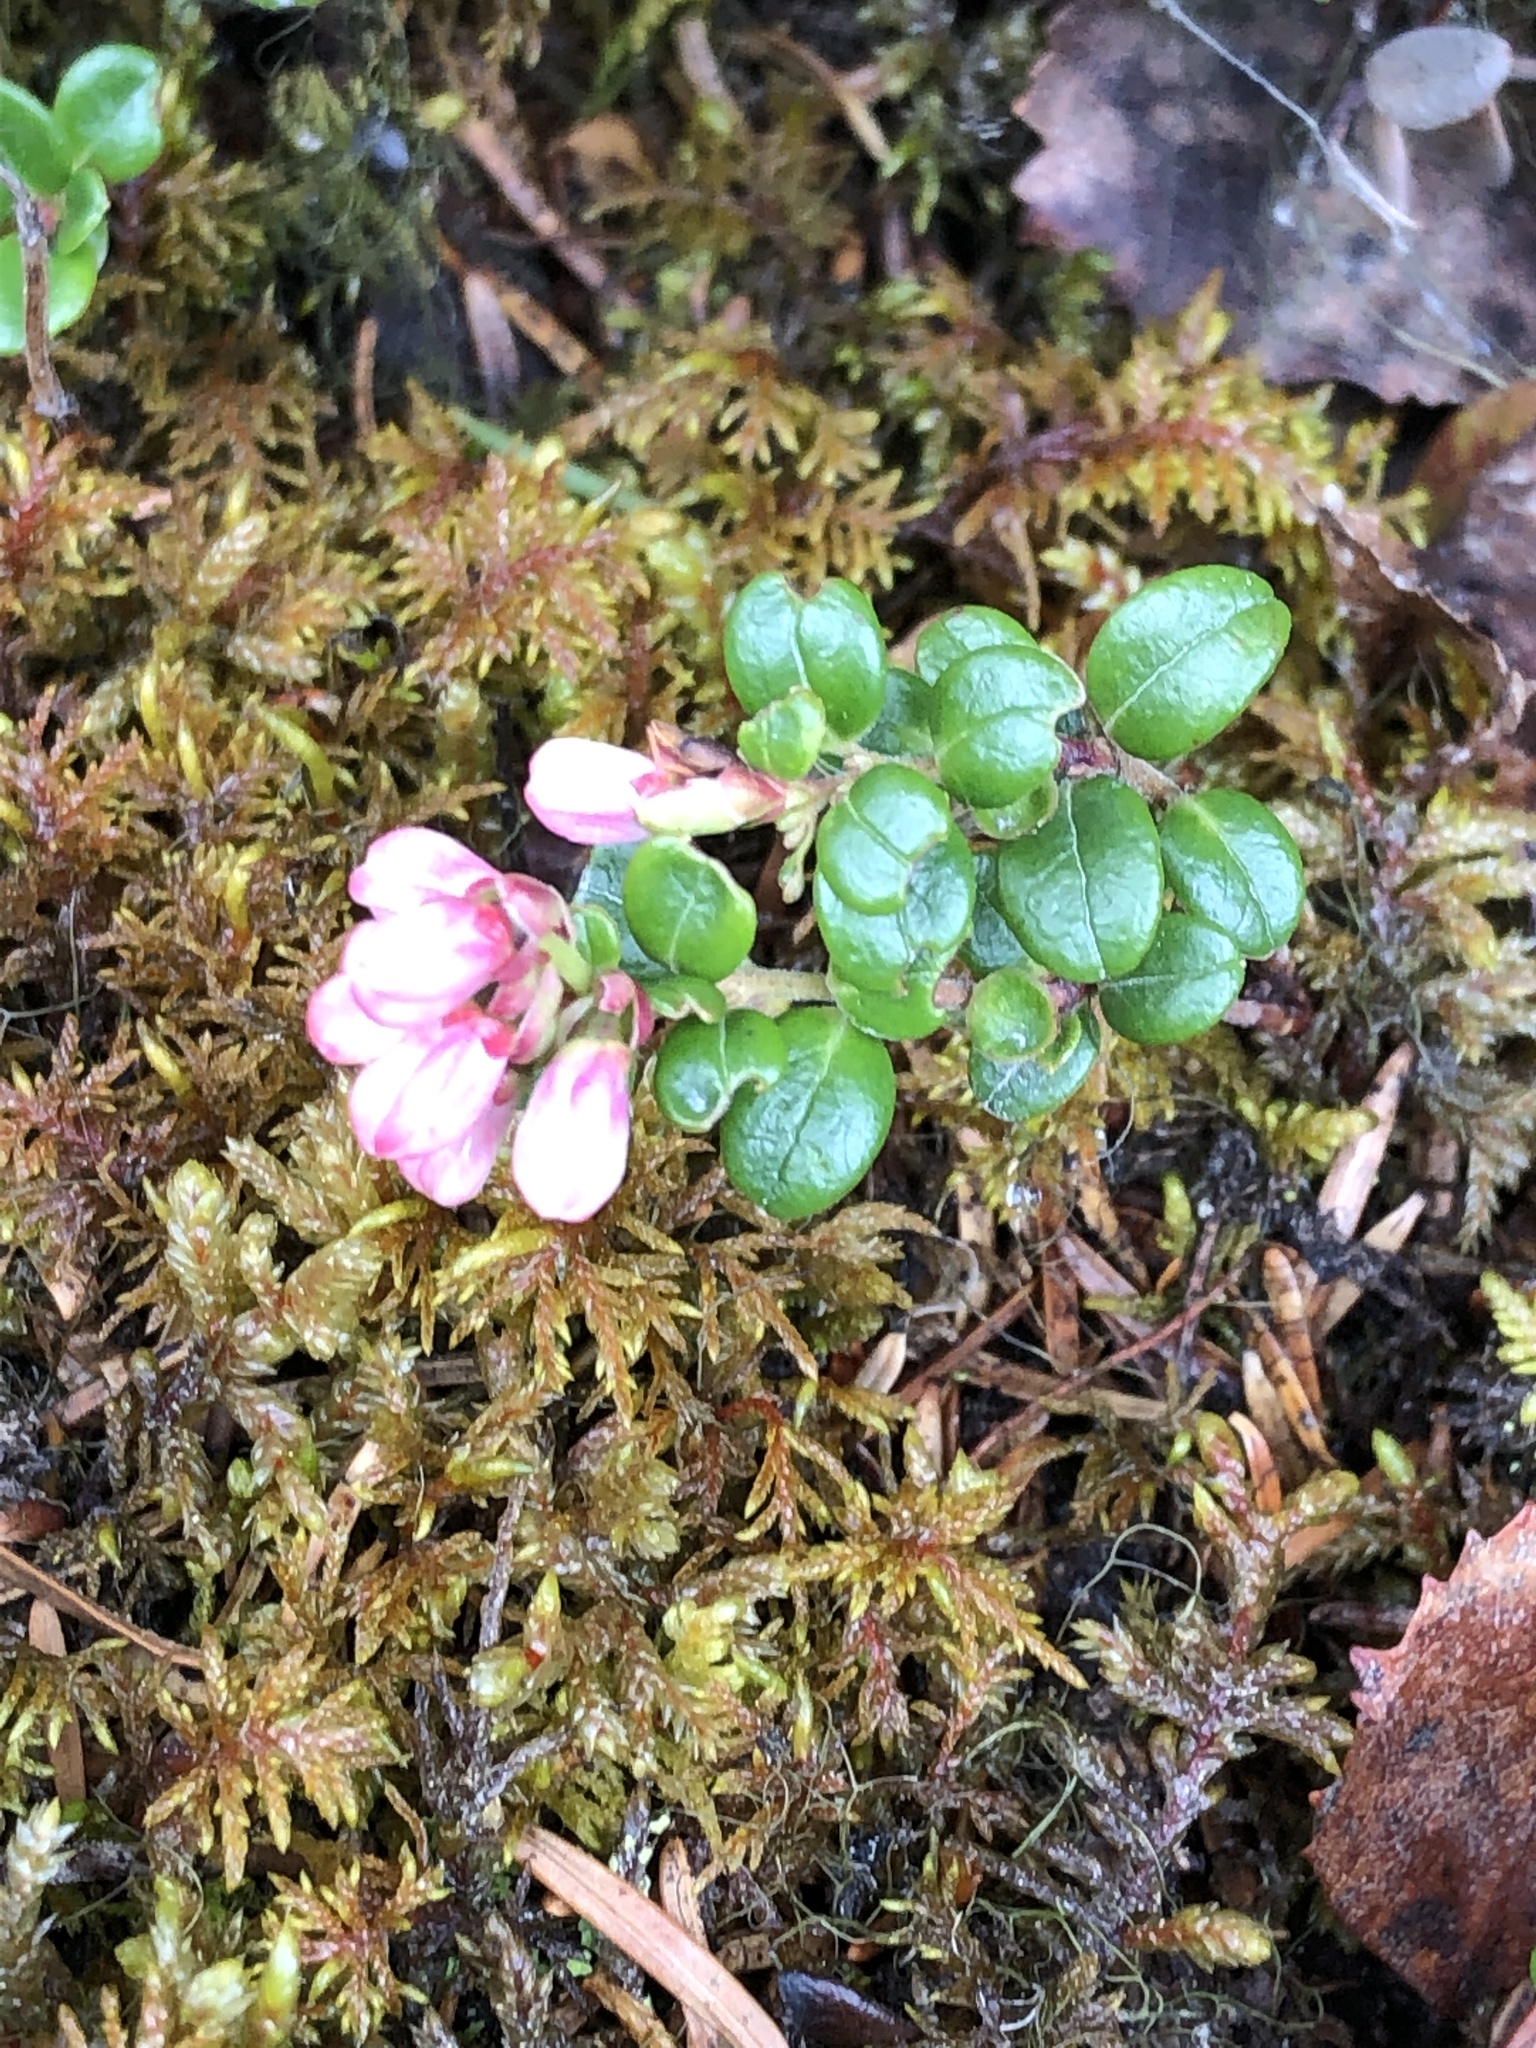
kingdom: Plantae
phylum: Tracheophyta
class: Magnoliopsida
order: Ericales
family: Ericaceae
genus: Vaccinium
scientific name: Vaccinium vitis-idaea
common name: Cowberry
